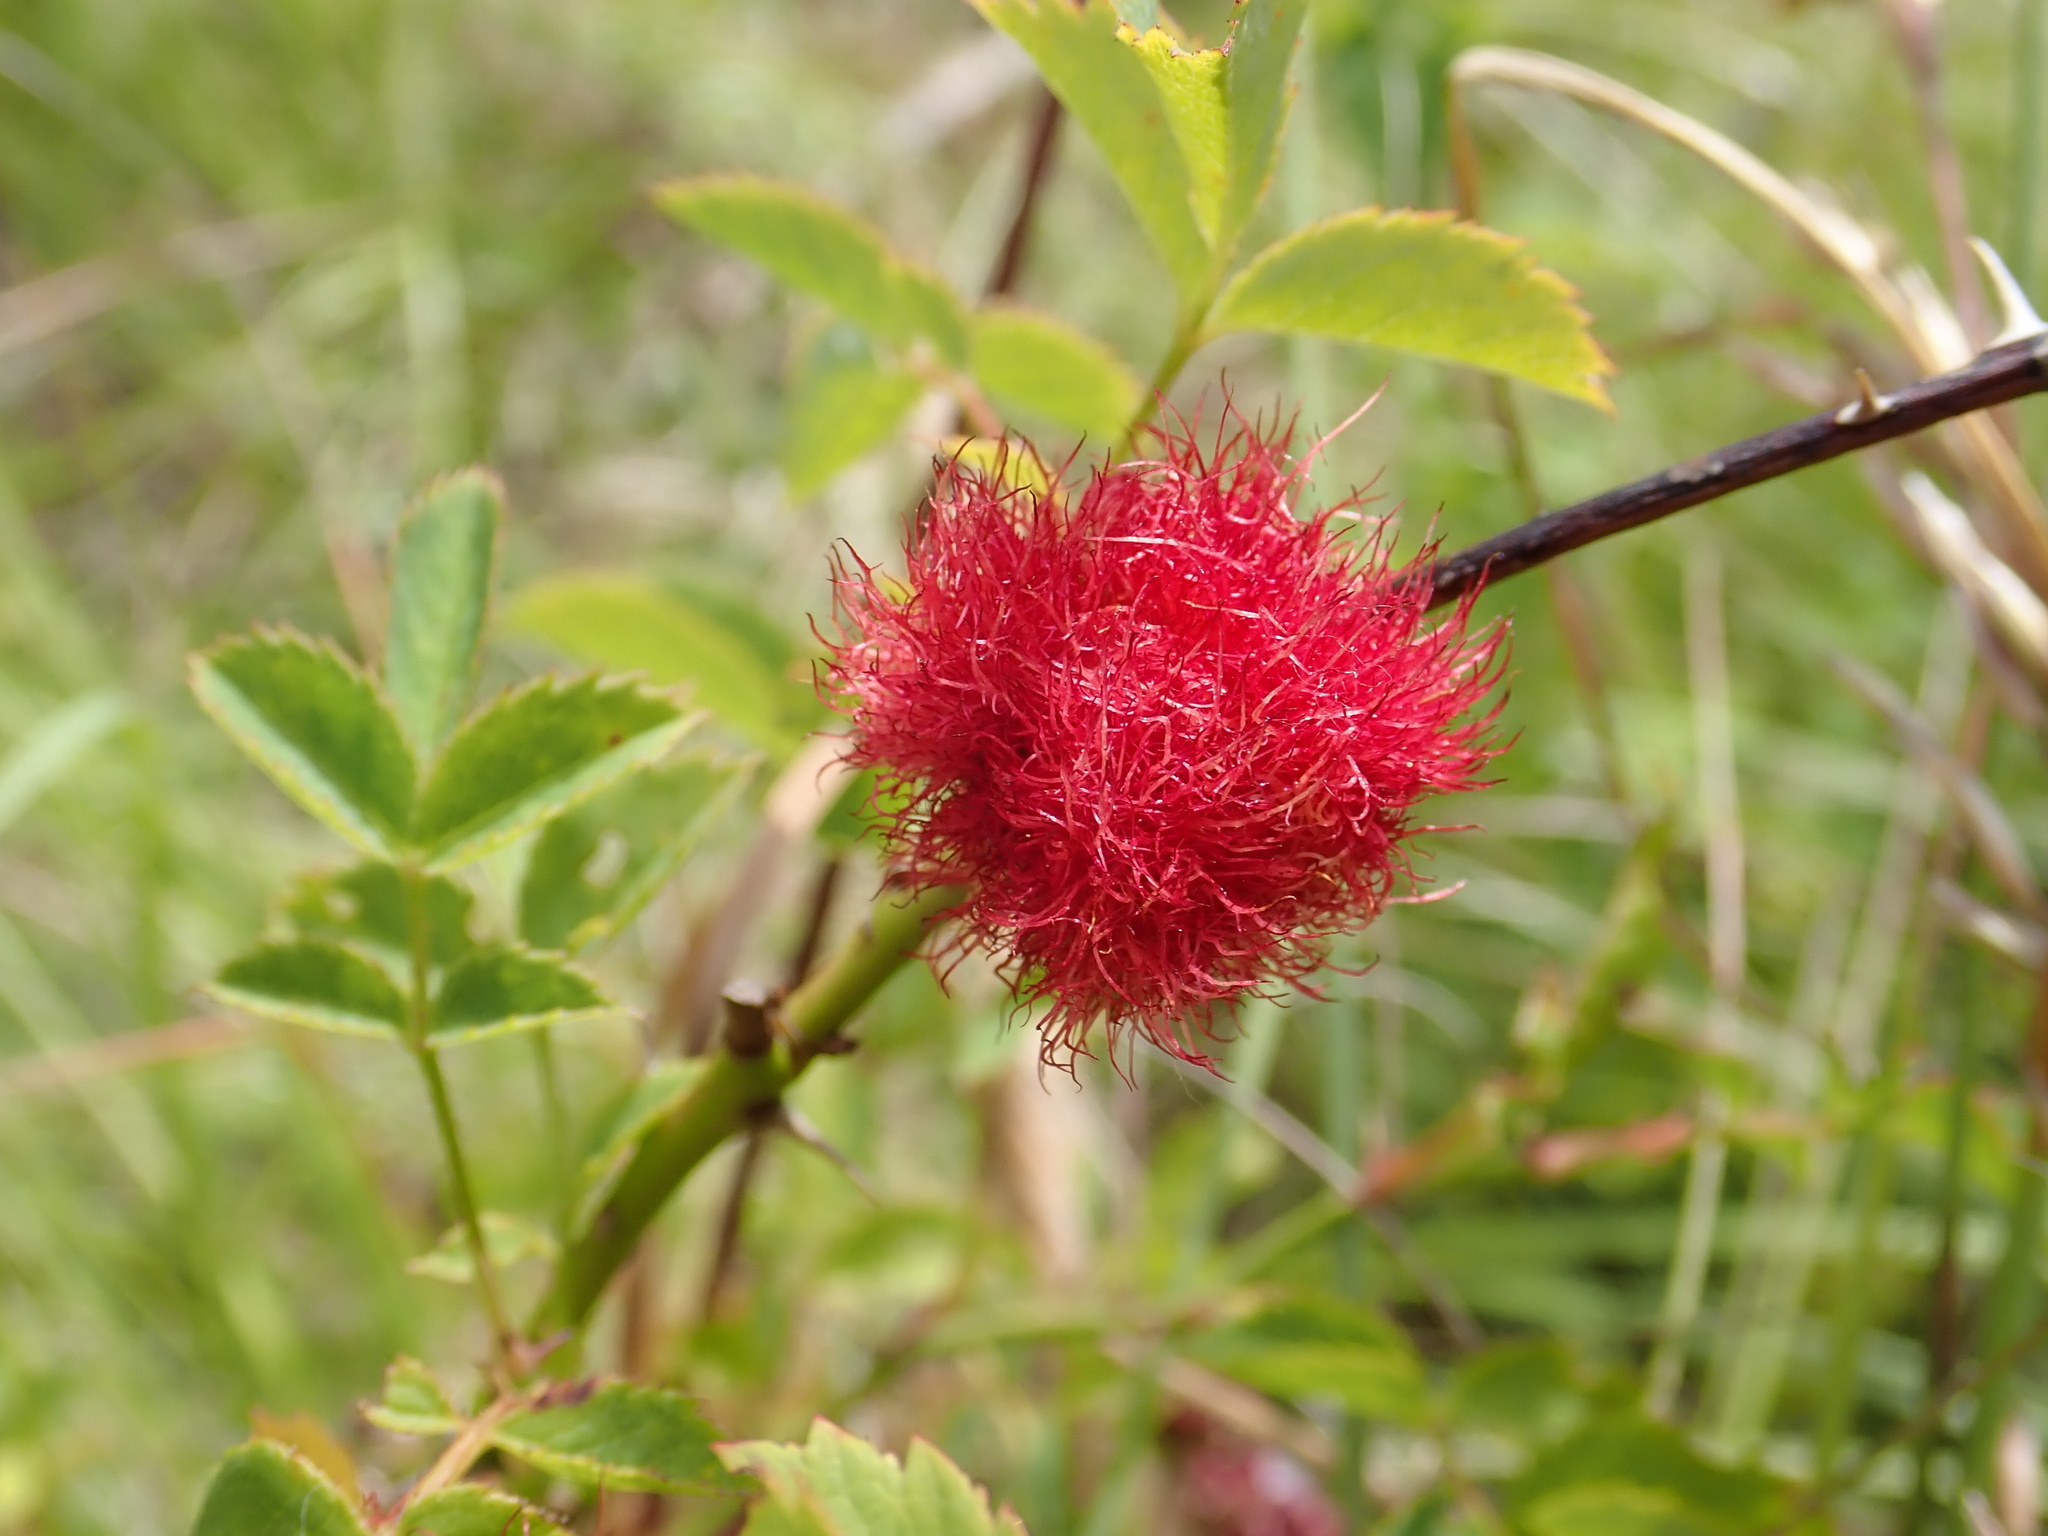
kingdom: Animalia
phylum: Arthropoda
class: Insecta
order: Hymenoptera
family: Cynipidae
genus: Diplolepis
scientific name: Diplolepis rosae
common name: Bedeguar gall
